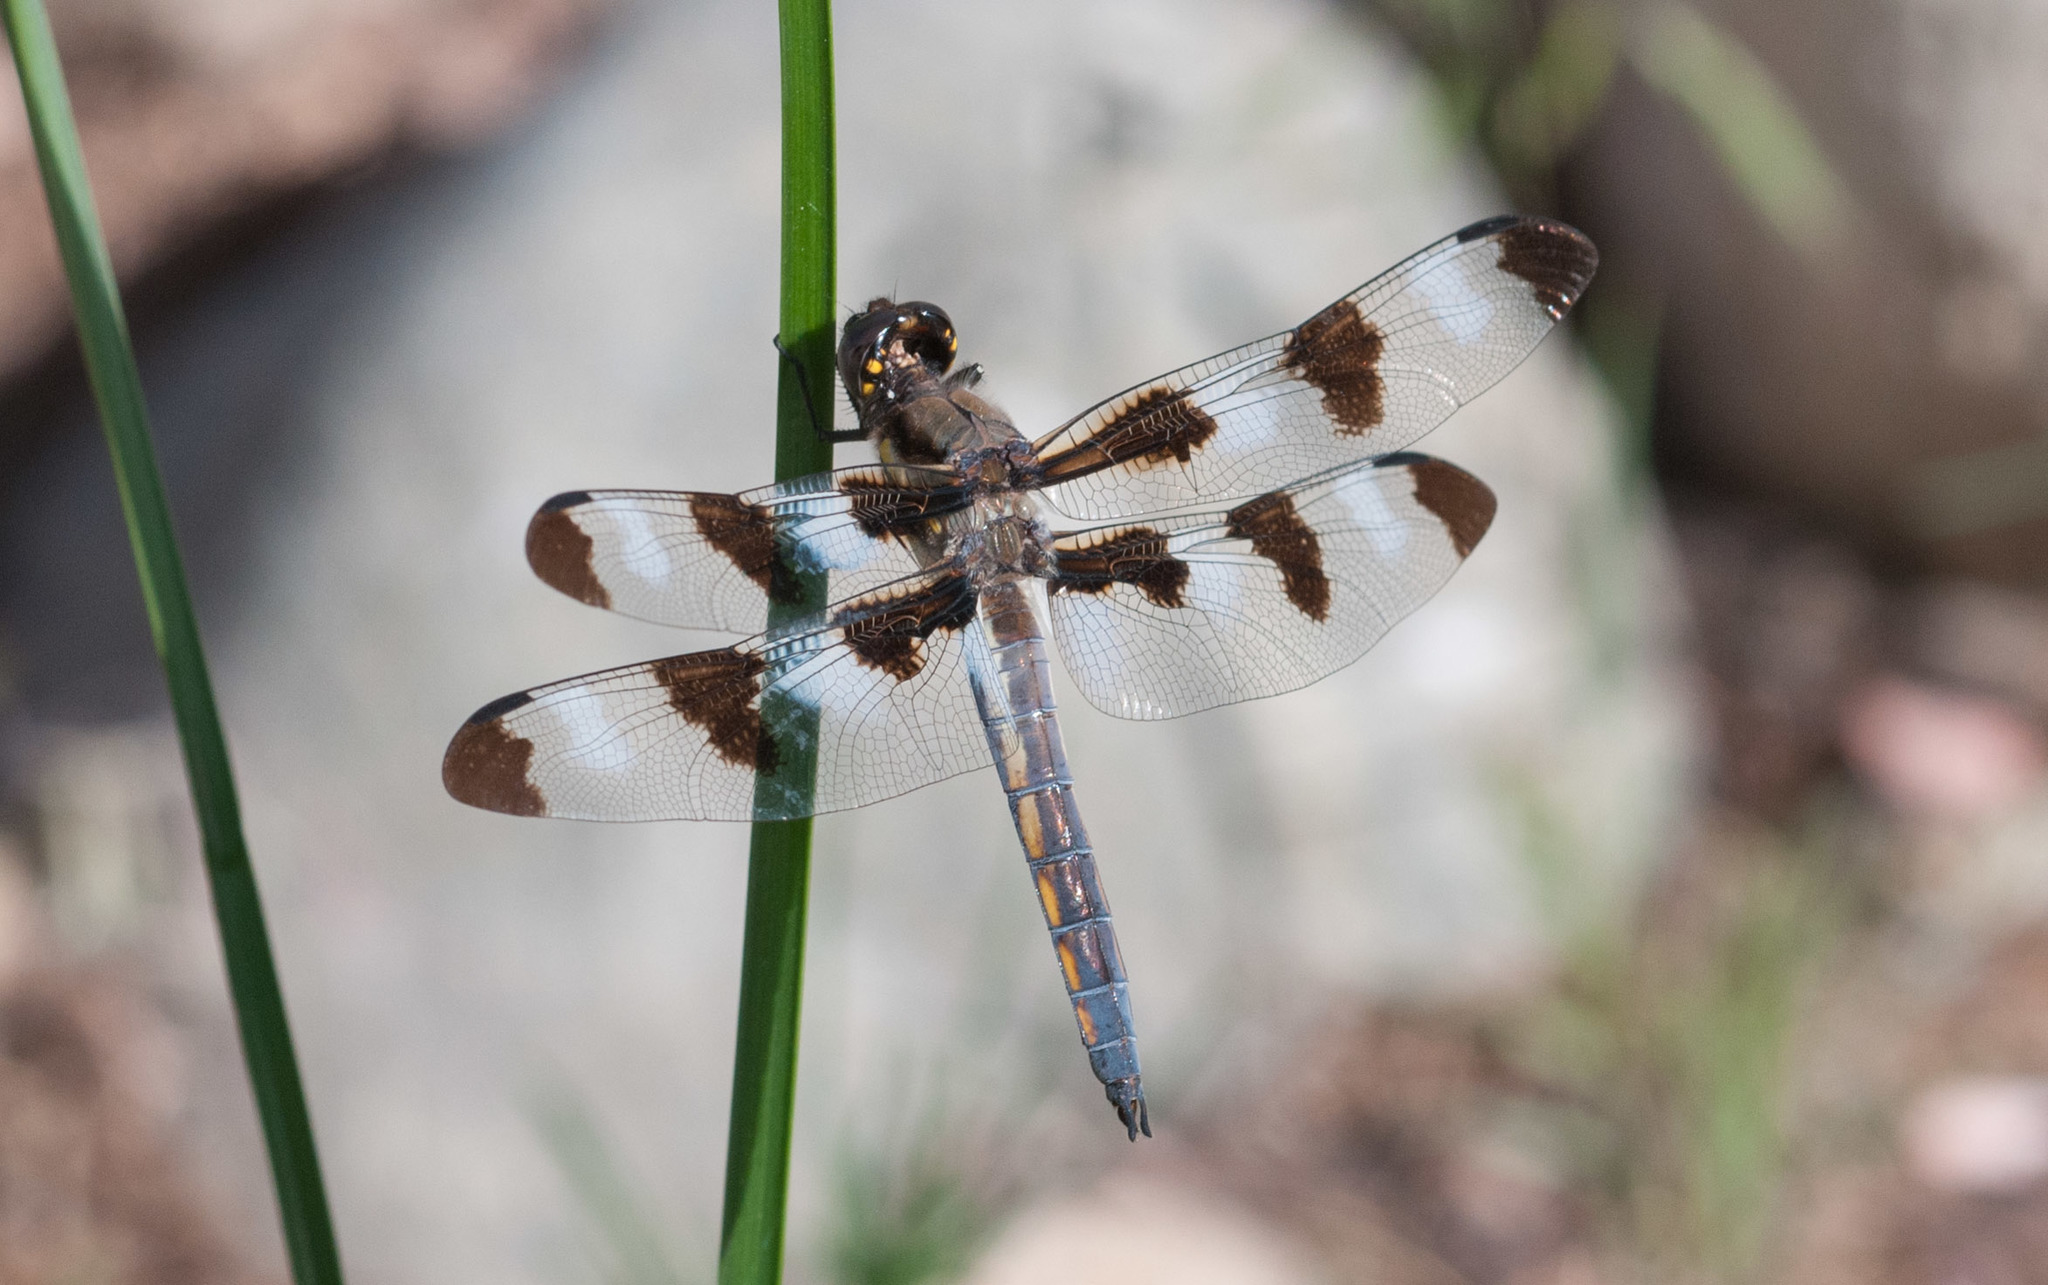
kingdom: Animalia
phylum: Arthropoda
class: Insecta
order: Odonata
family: Libellulidae
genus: Libellula
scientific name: Libellula pulchella
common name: Twelve-spotted skimmer
